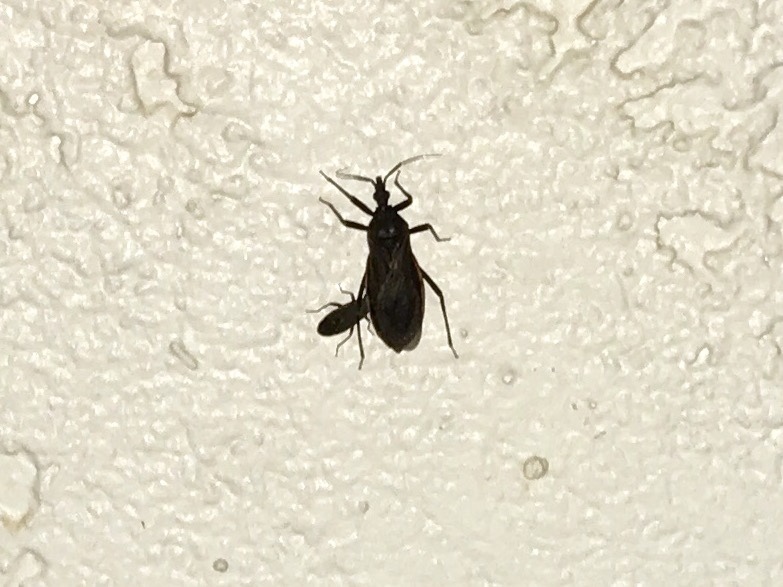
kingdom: Animalia
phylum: Arthropoda
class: Insecta
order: Hemiptera
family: Reduviidae
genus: Triatoma
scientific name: Triatoma rubida
